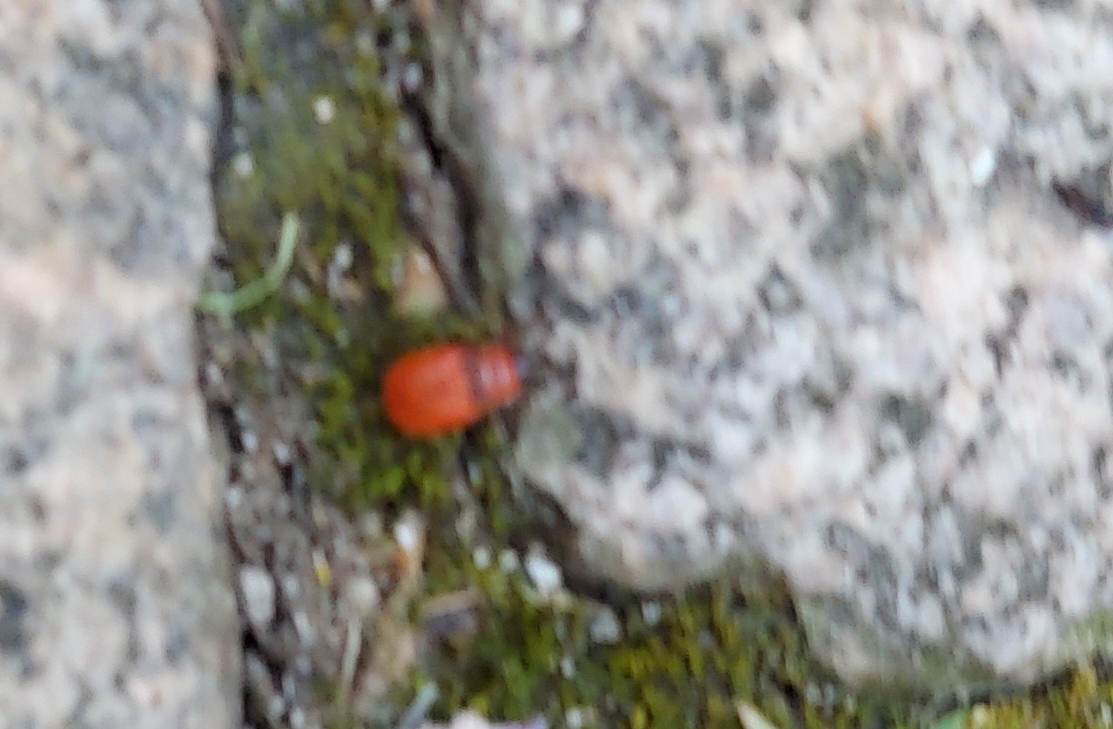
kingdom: Animalia
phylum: Arthropoda
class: Insecta
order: Hemiptera
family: Pyrrhocoridae
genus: Pyrrhocoris
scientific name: Pyrrhocoris apterus
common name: Firebug
